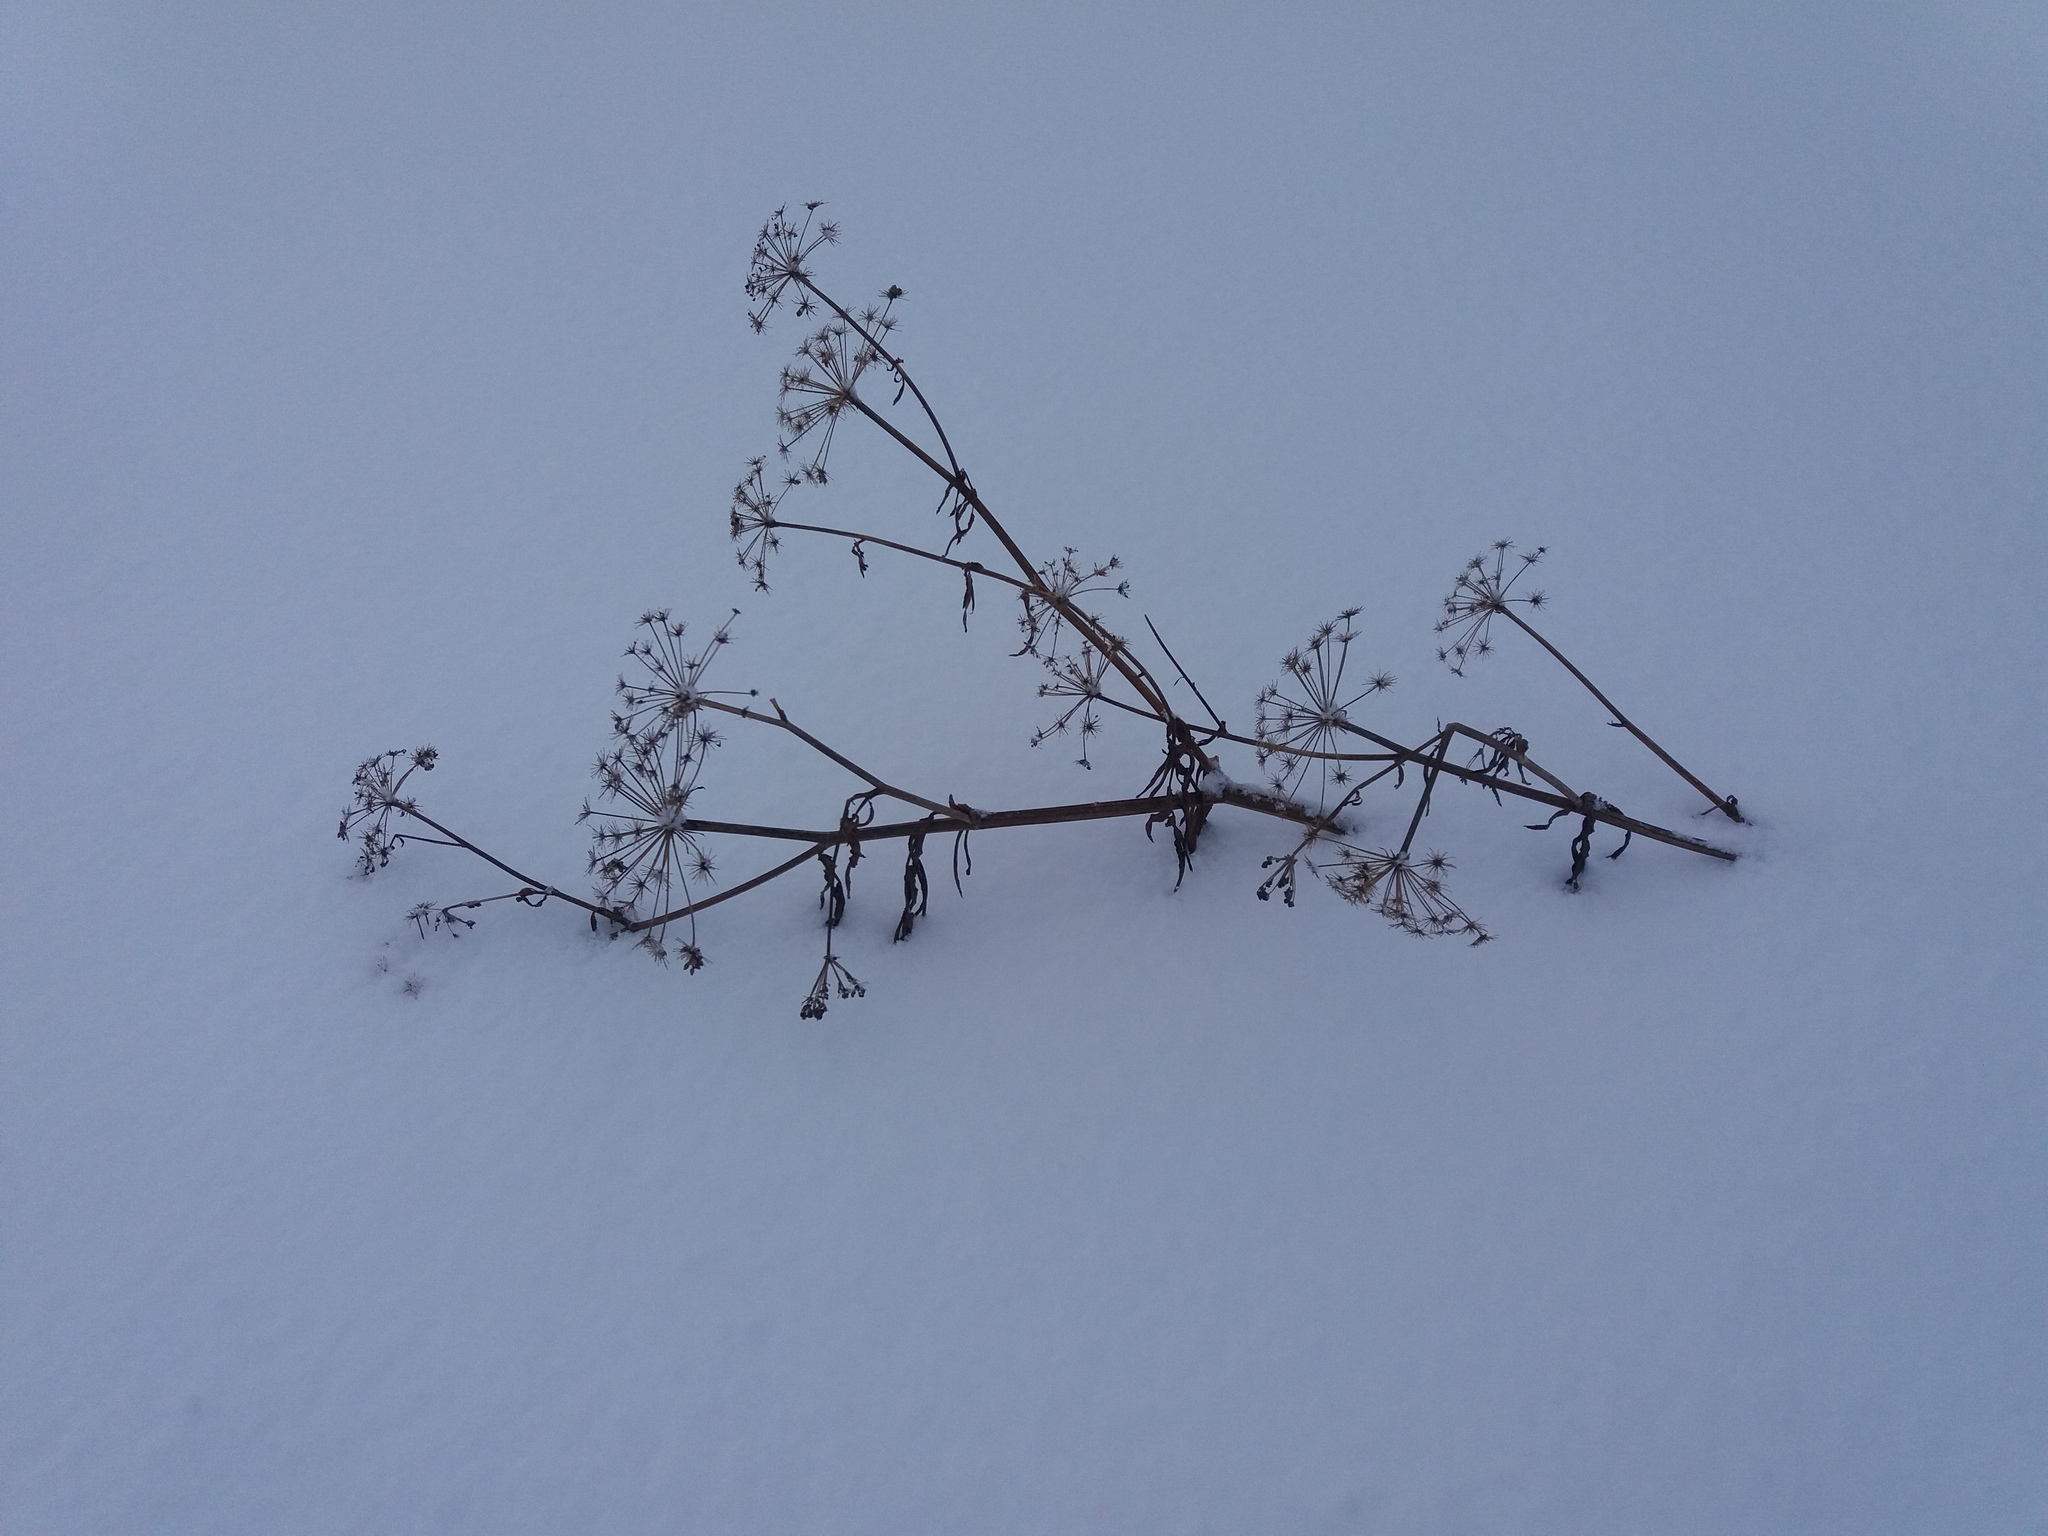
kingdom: Plantae
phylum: Tracheophyta
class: Magnoliopsida
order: Apiales
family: Apiaceae
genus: Sium
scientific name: Sium latifolium
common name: Greater water-parsnip
